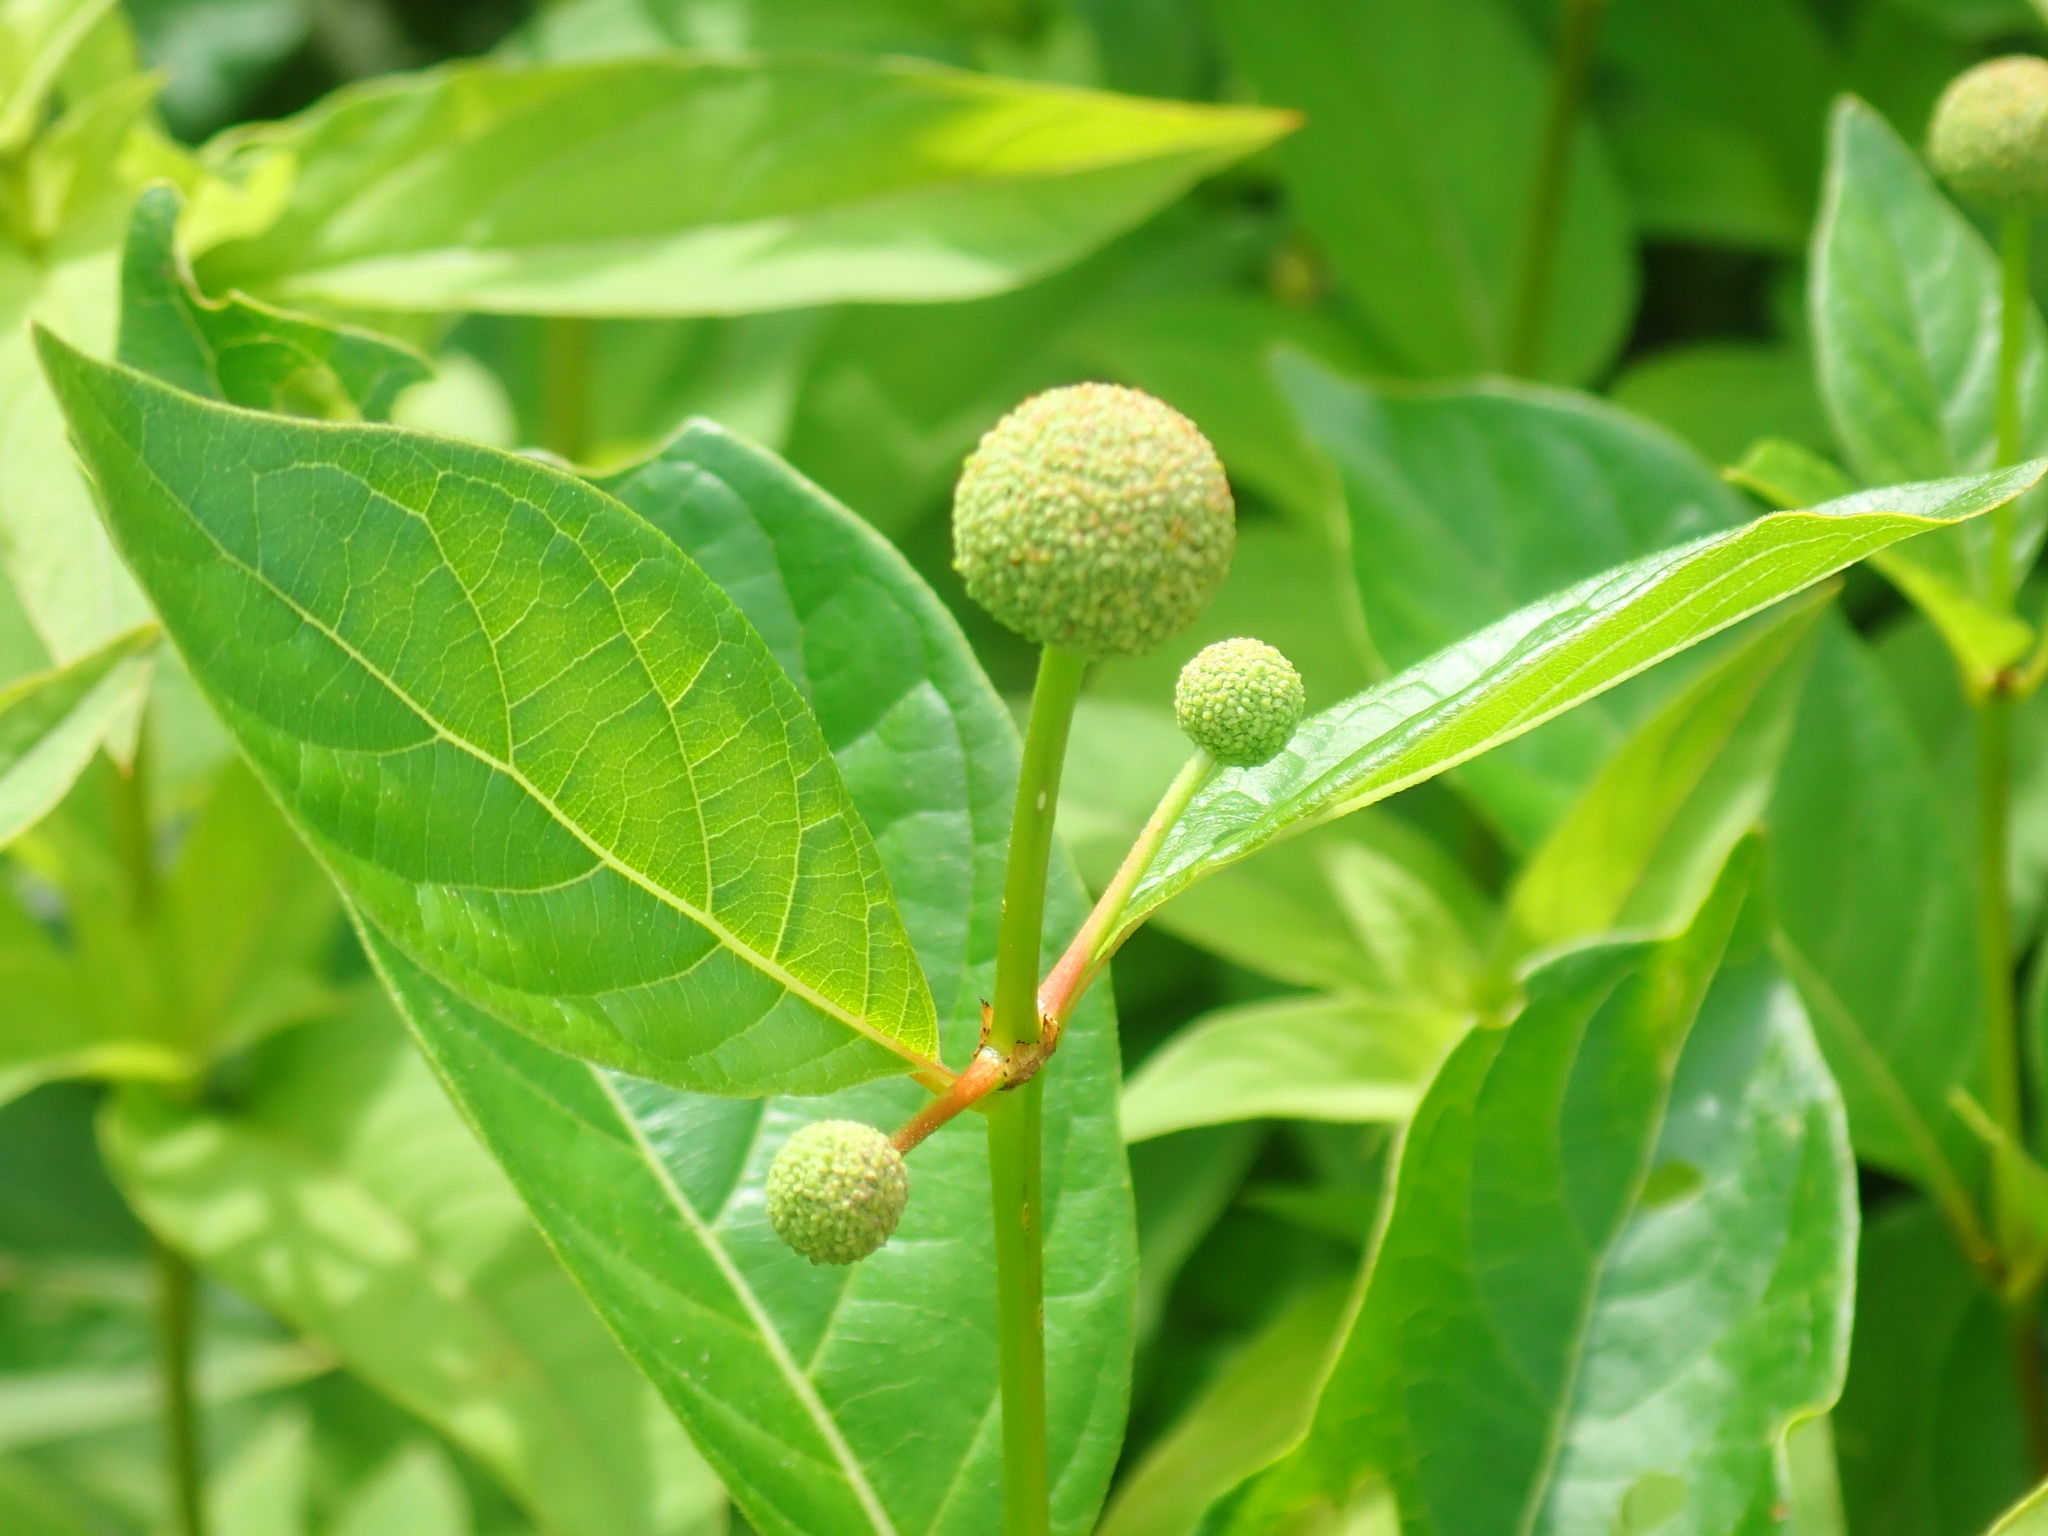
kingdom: Plantae
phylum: Tracheophyta
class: Magnoliopsida
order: Gentianales
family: Rubiaceae
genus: Cephalanthus
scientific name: Cephalanthus occidentalis
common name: Button-willow
